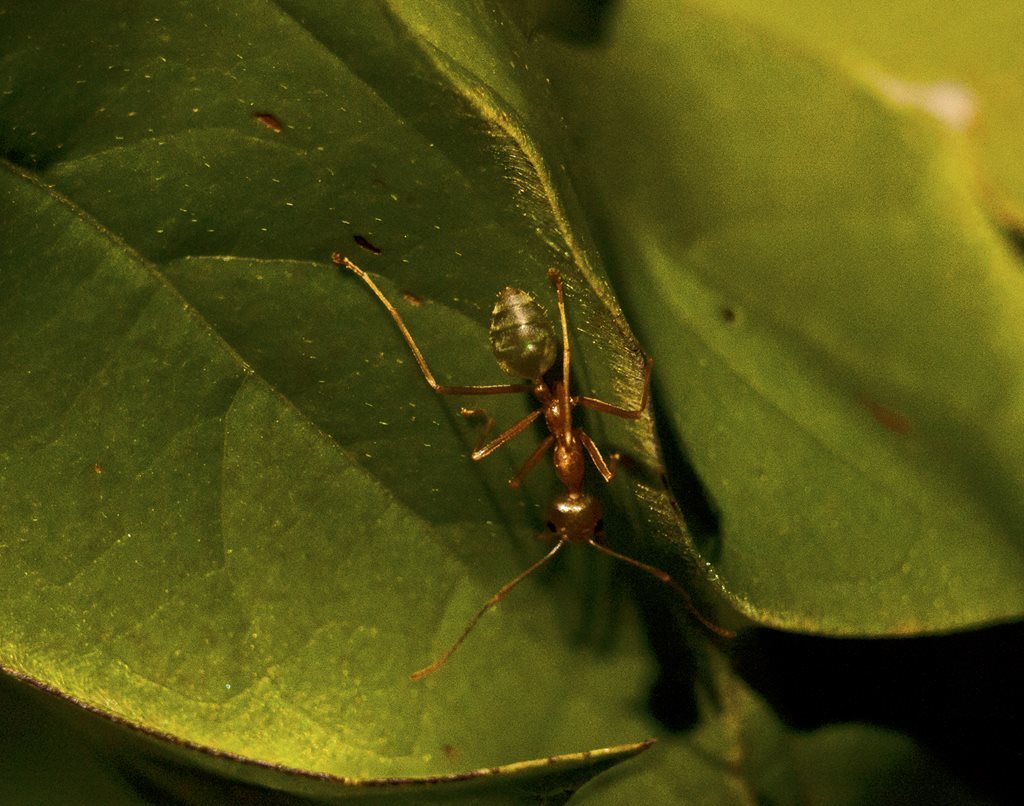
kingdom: Animalia
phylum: Arthropoda
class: Insecta
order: Hymenoptera
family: Formicidae
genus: Oecophylla
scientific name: Oecophylla smaragdina
